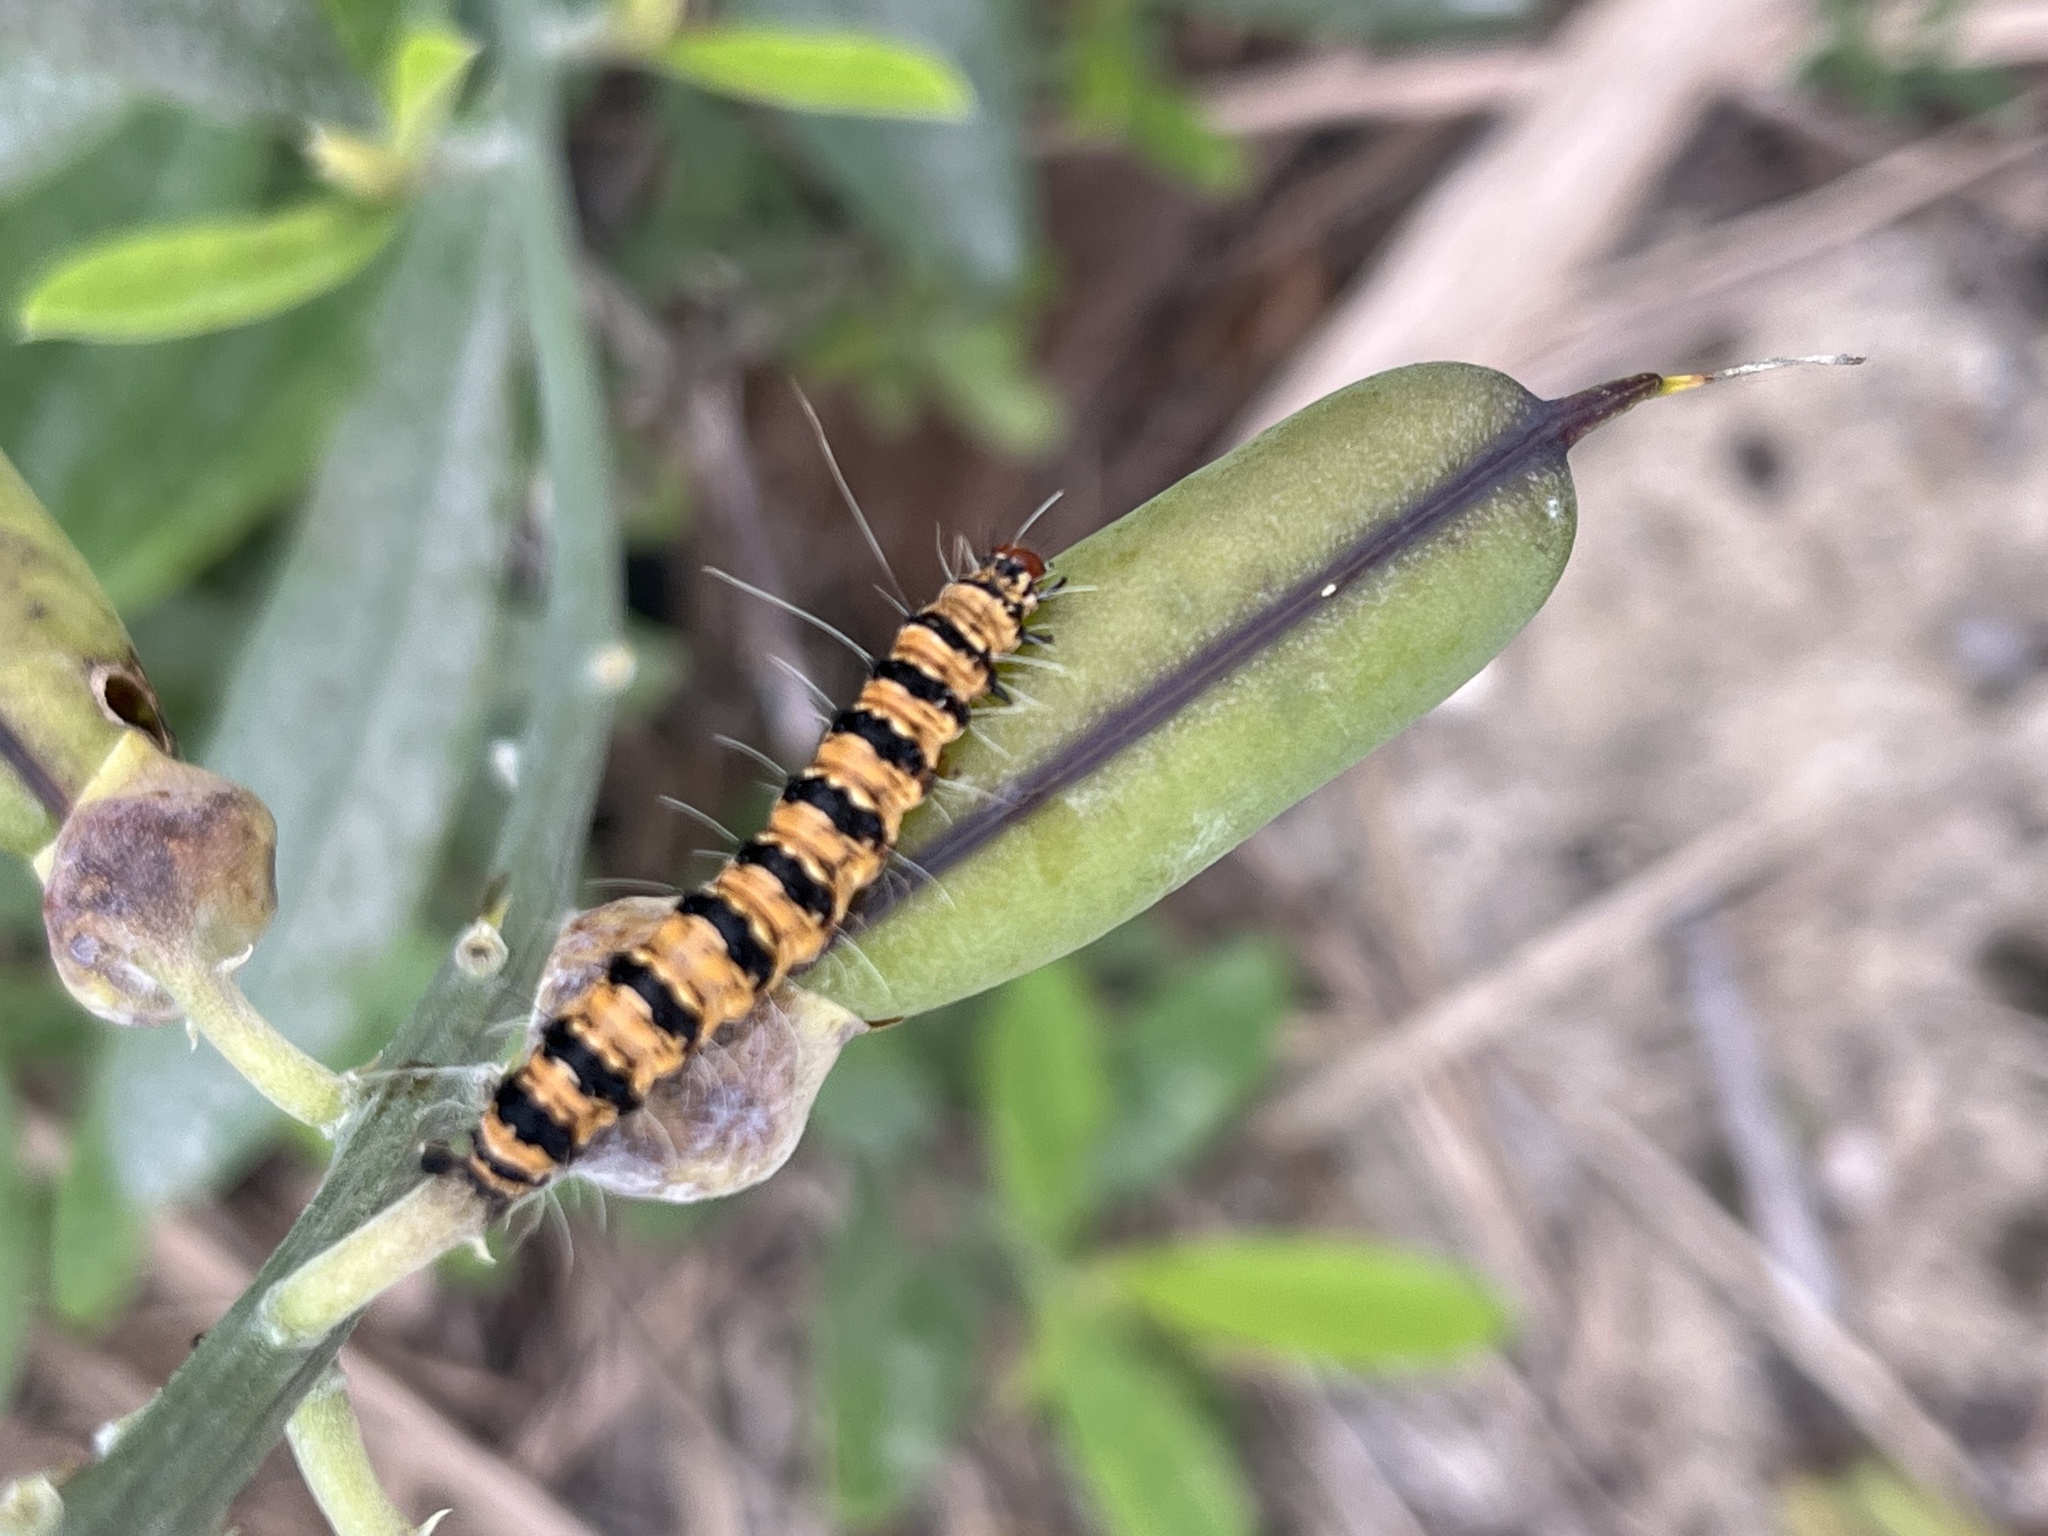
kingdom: Animalia
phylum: Arthropoda
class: Insecta
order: Lepidoptera
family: Erebidae
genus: Utetheisa
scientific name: Utetheisa ornatrix
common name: Beautiful utetheisa
